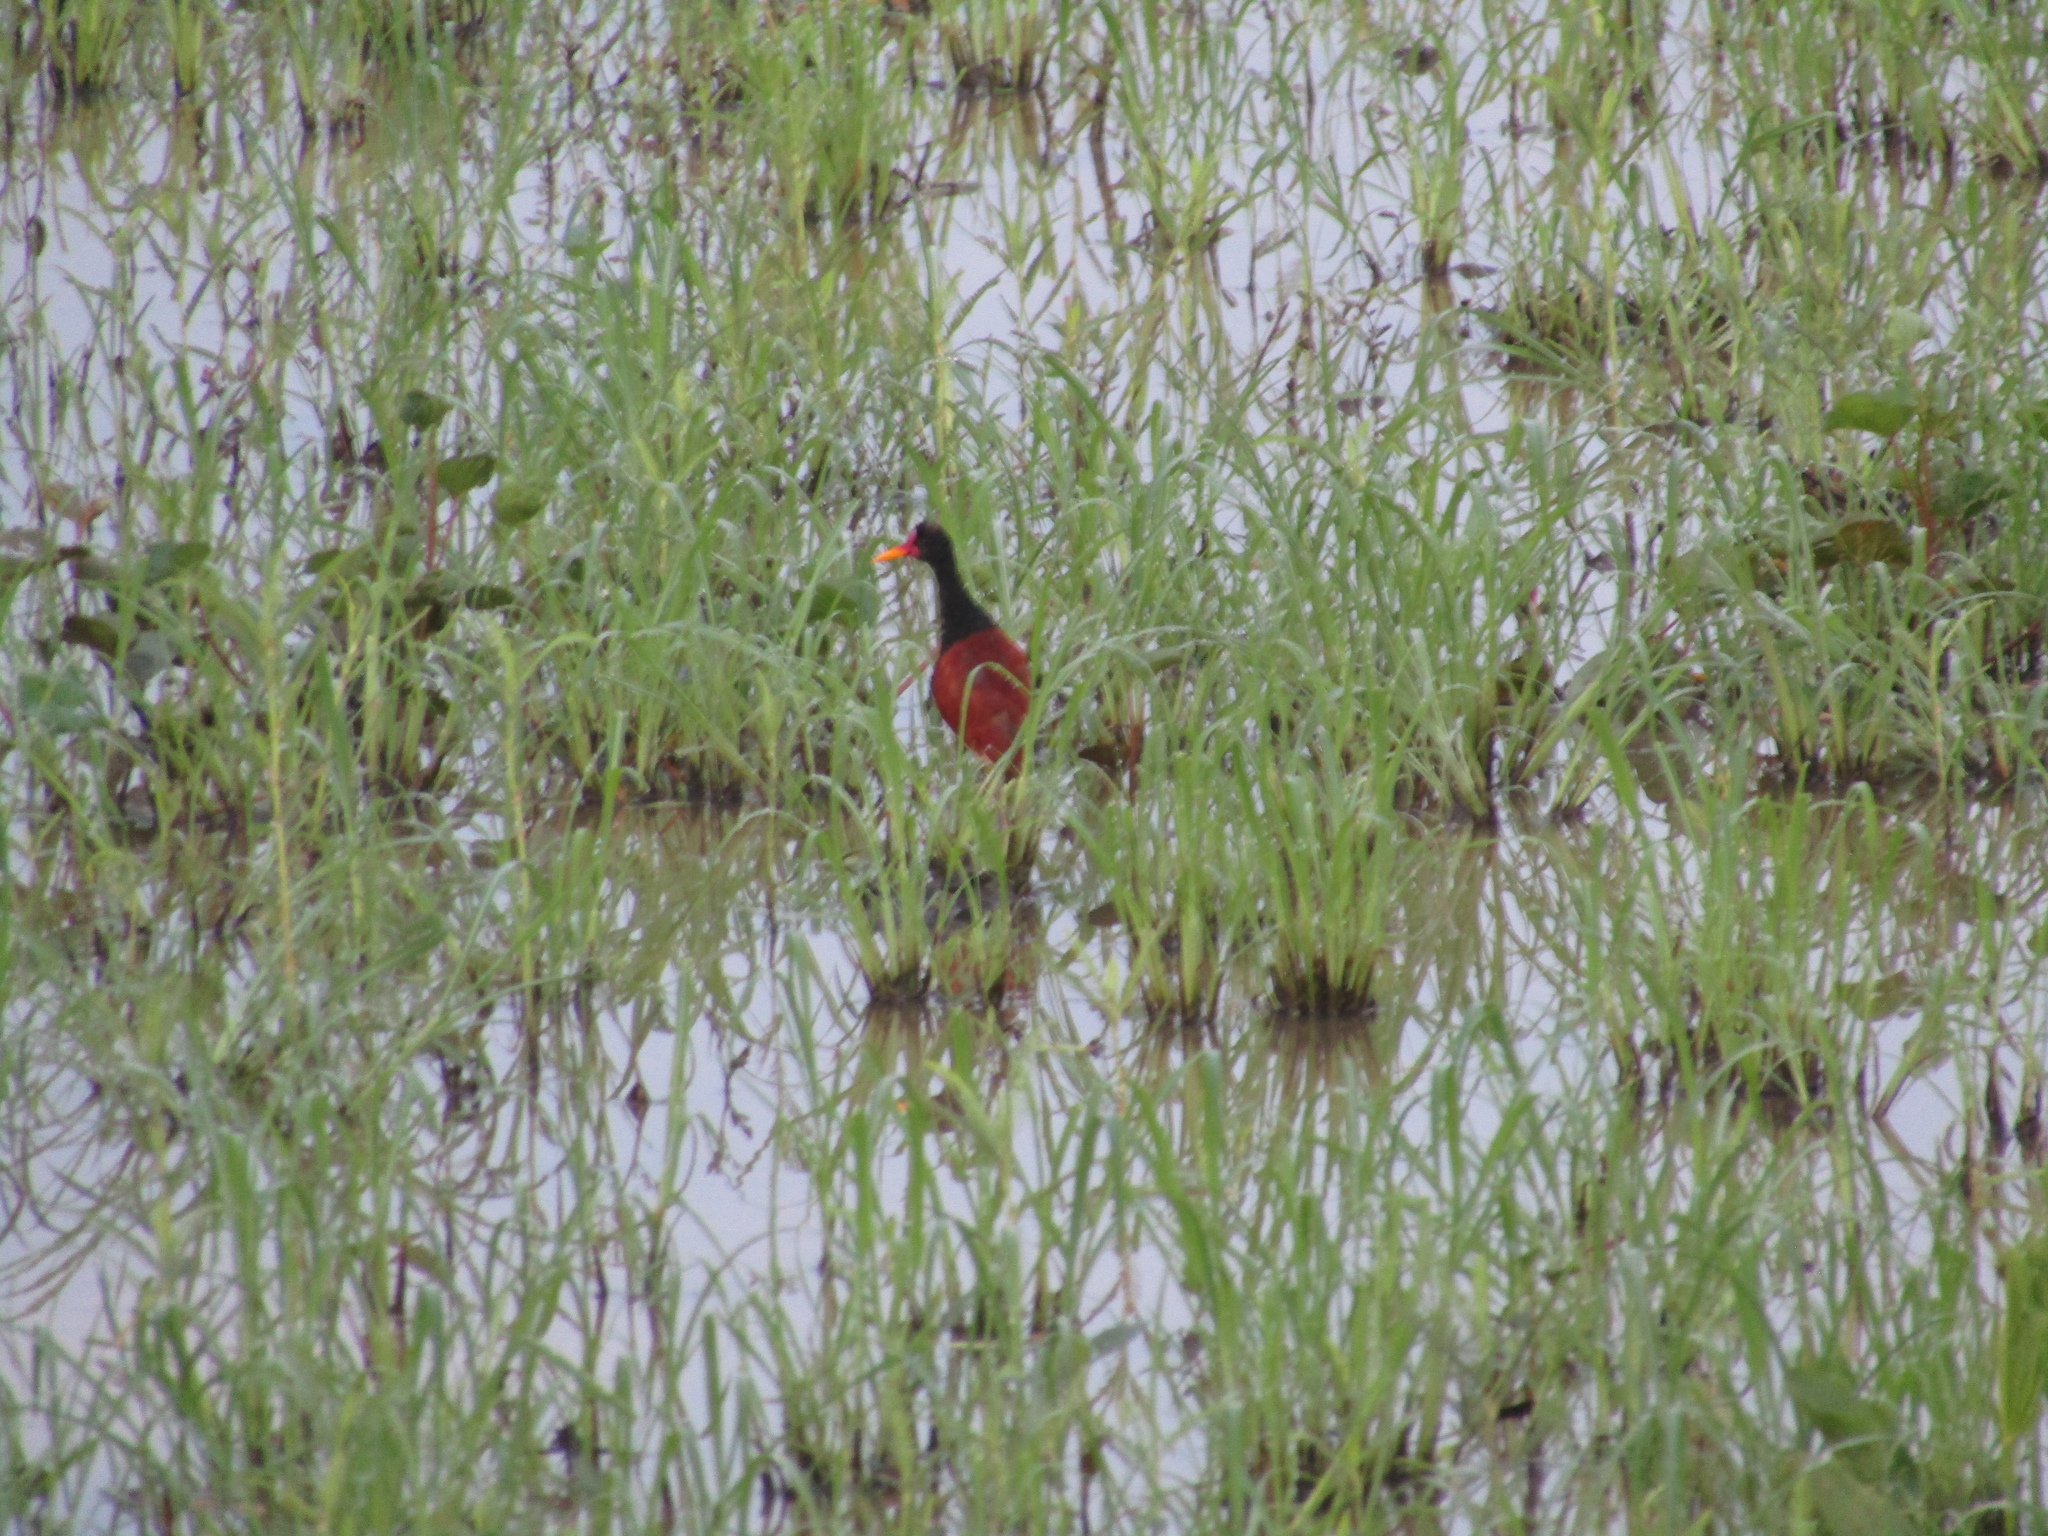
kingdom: Animalia
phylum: Chordata
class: Aves
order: Charadriiformes
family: Jacanidae
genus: Jacana
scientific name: Jacana jacana
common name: Wattled jacana
